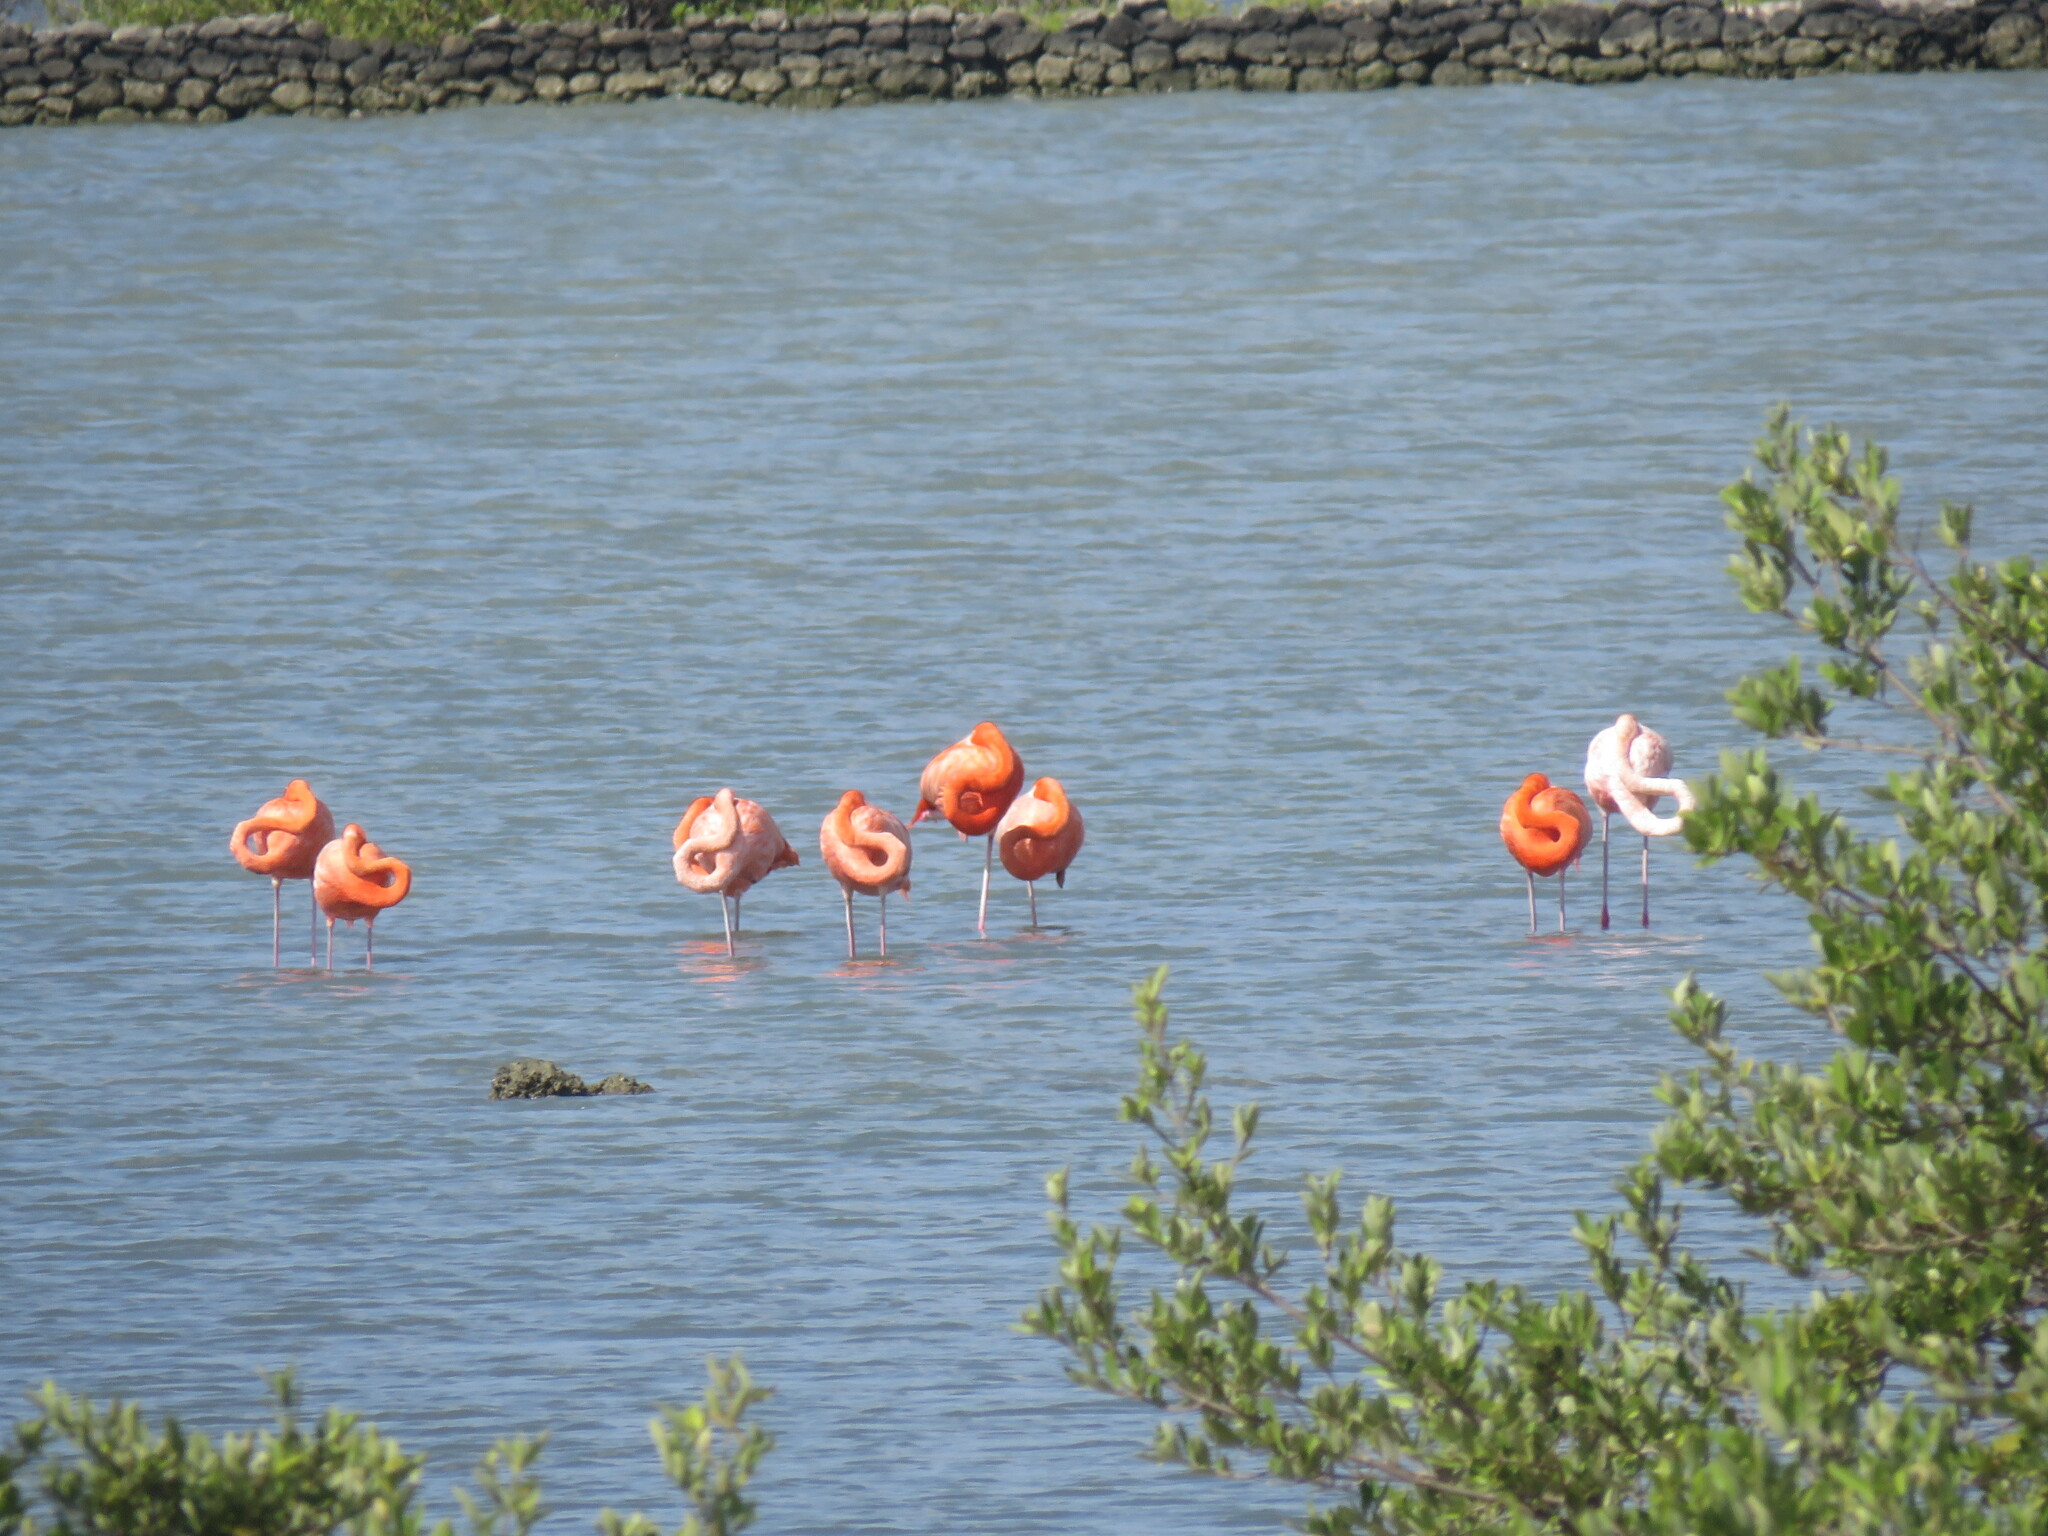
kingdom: Animalia
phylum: Chordata
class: Aves
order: Phoenicopteriformes
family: Phoenicopteridae
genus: Phoenicopterus
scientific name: Phoenicopterus ruber
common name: American flamingo
